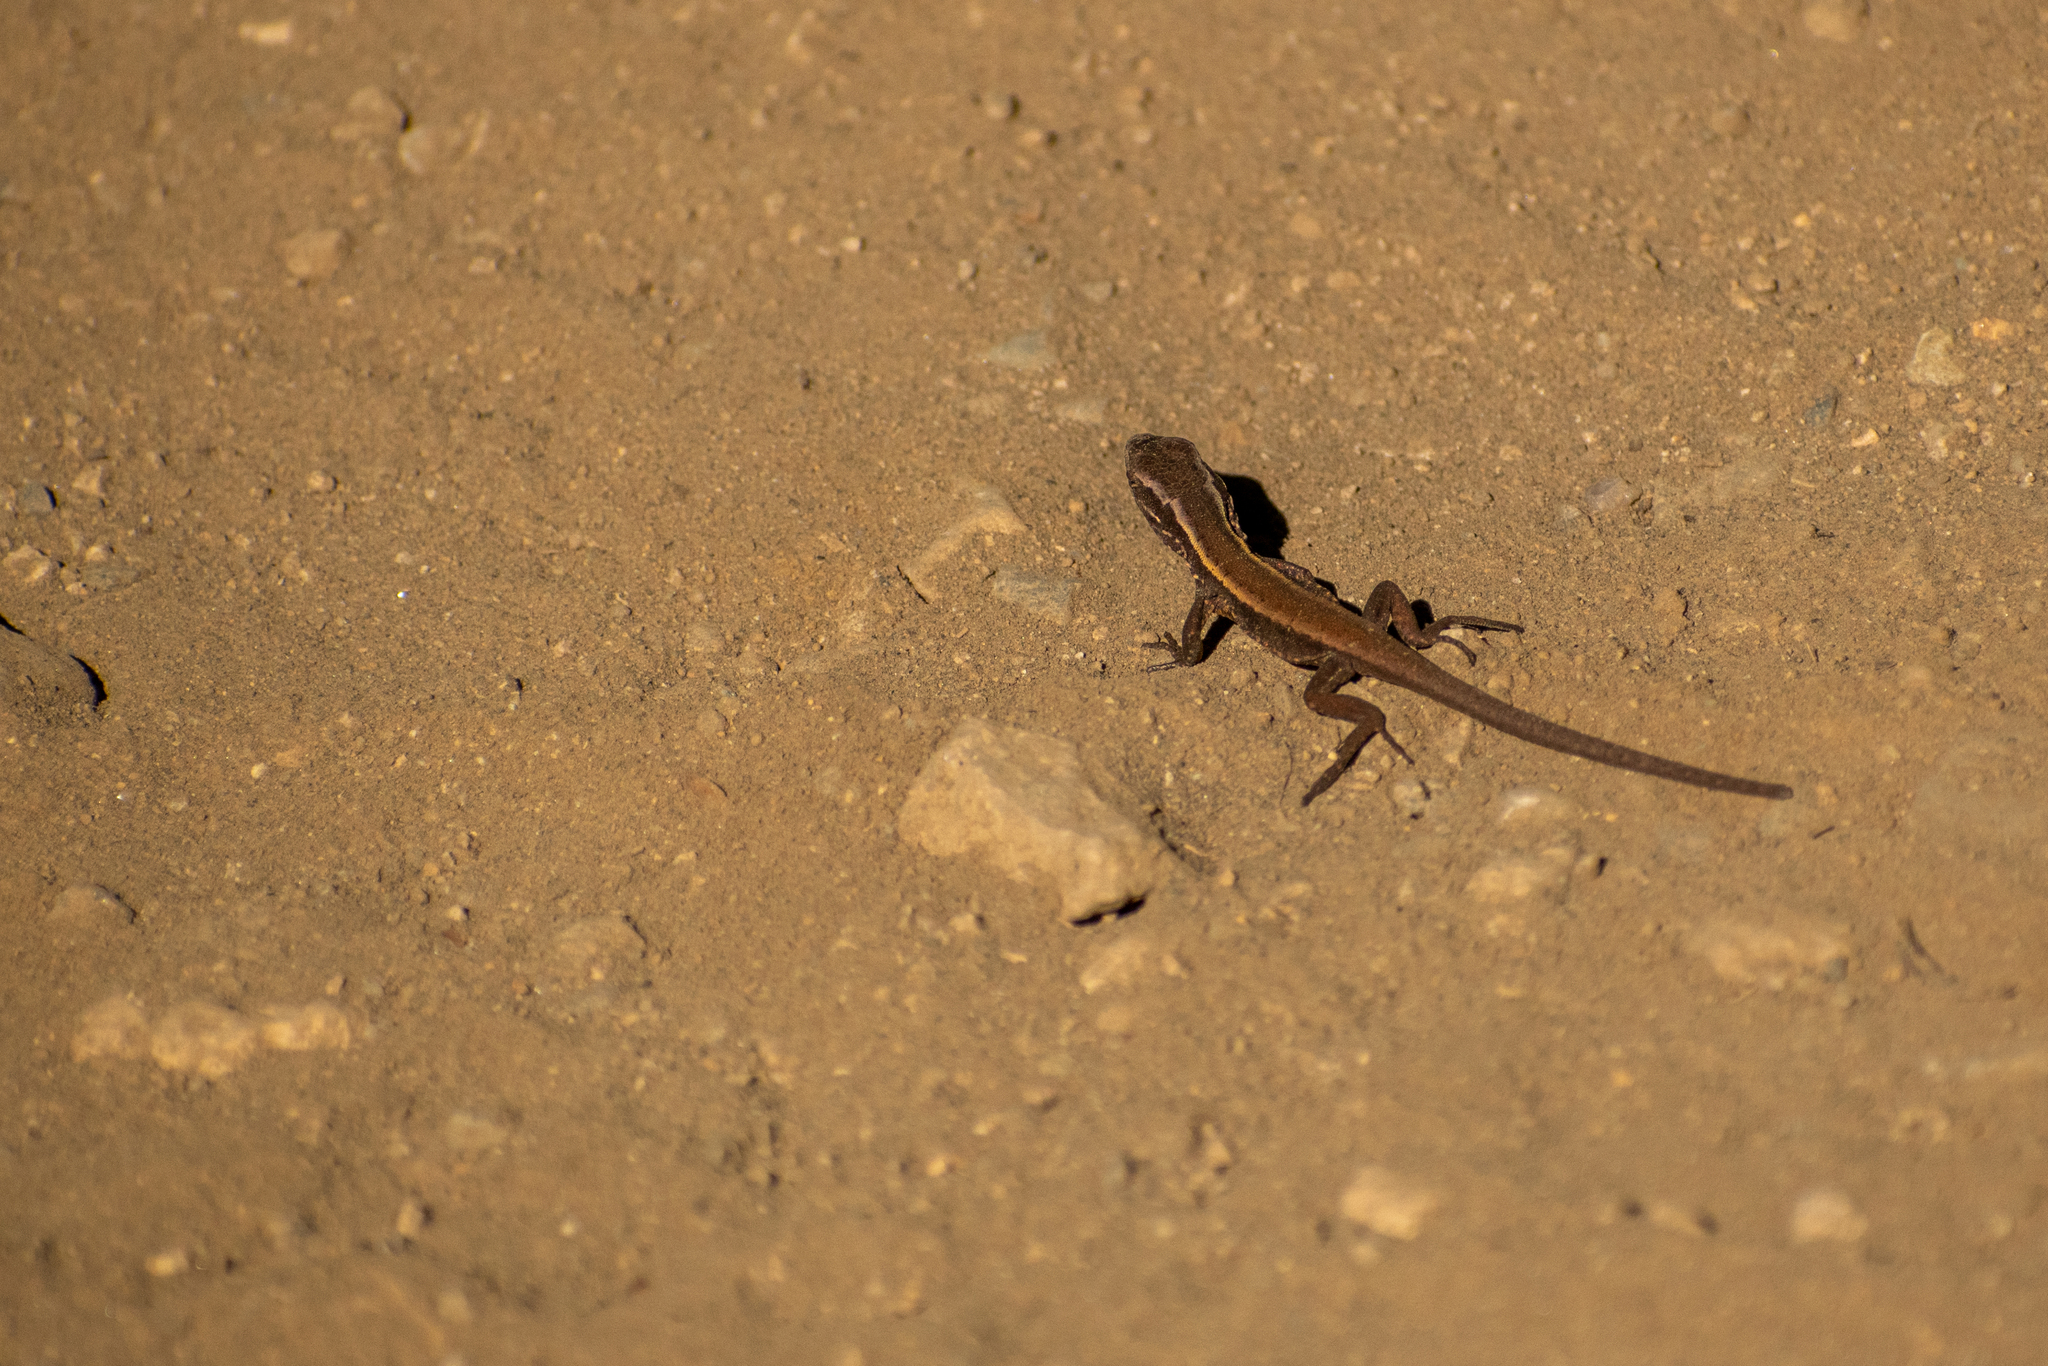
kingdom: Animalia
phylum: Chordata
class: Squamata
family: Liolaemidae
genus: Liolaemus
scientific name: Liolaemus pictus
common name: Painted tree iguana
